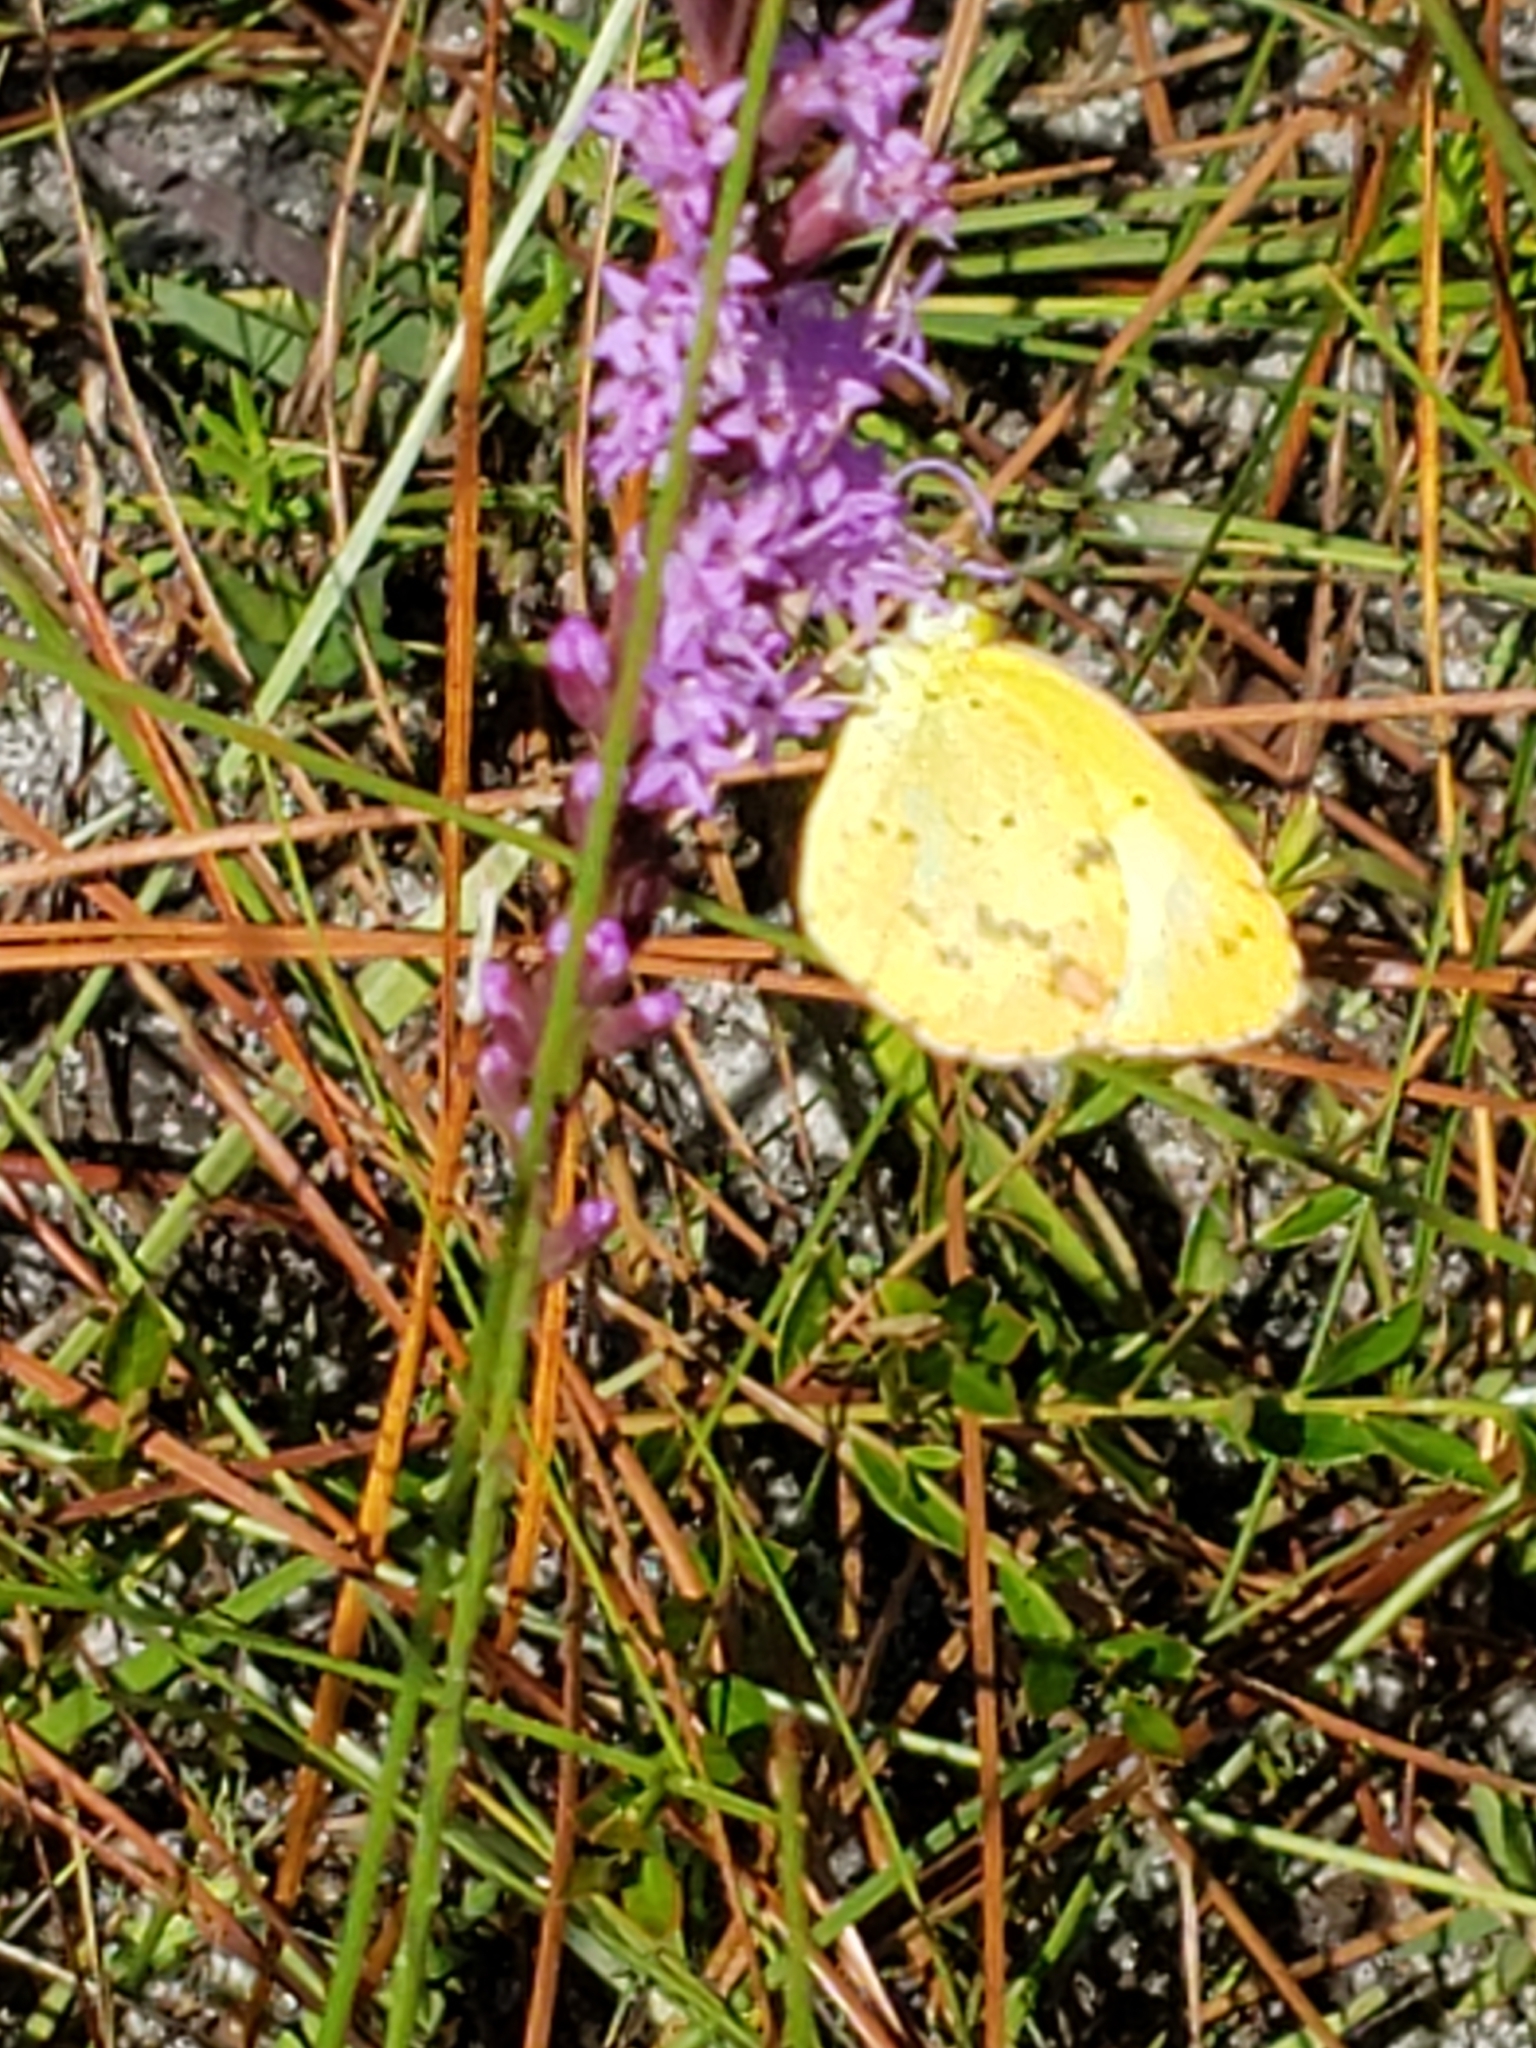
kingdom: Animalia
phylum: Arthropoda
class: Insecta
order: Lepidoptera
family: Pieridae
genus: Pyrisitia
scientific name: Pyrisitia lisa
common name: Little yellow
